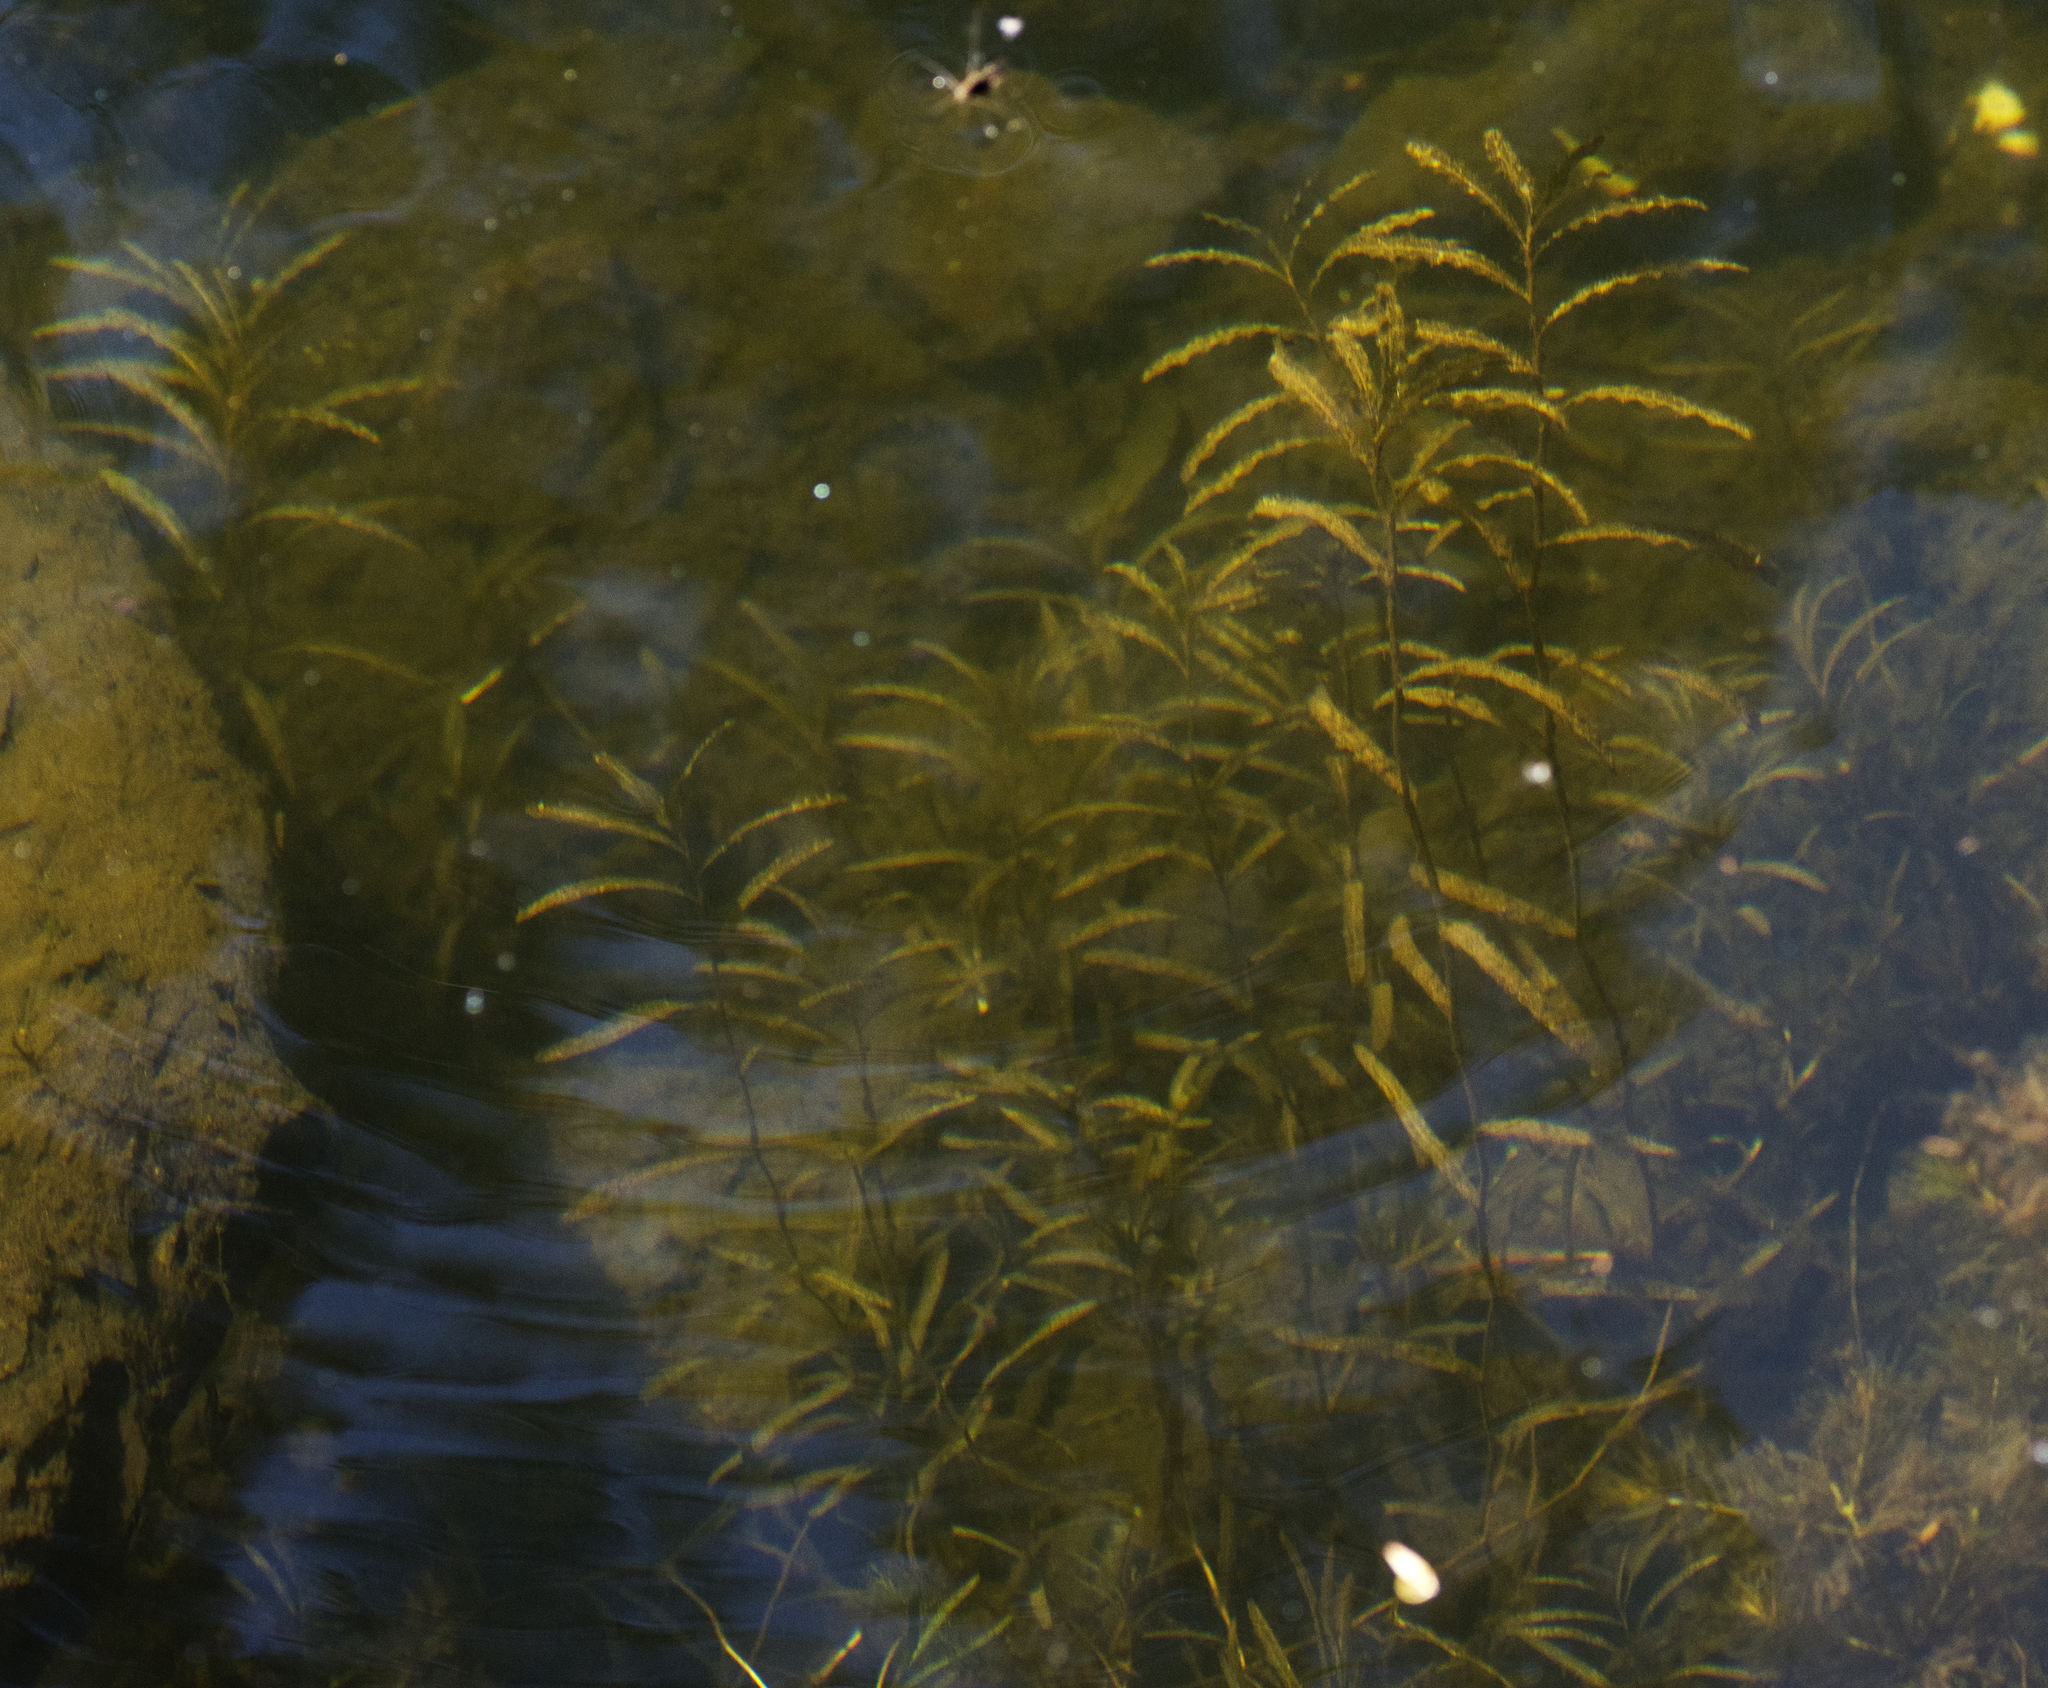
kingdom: Plantae
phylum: Tracheophyta
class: Liliopsida
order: Alismatales
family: Potamogetonaceae
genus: Potamogeton
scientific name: Potamogeton crispus
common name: Curled pondweed
